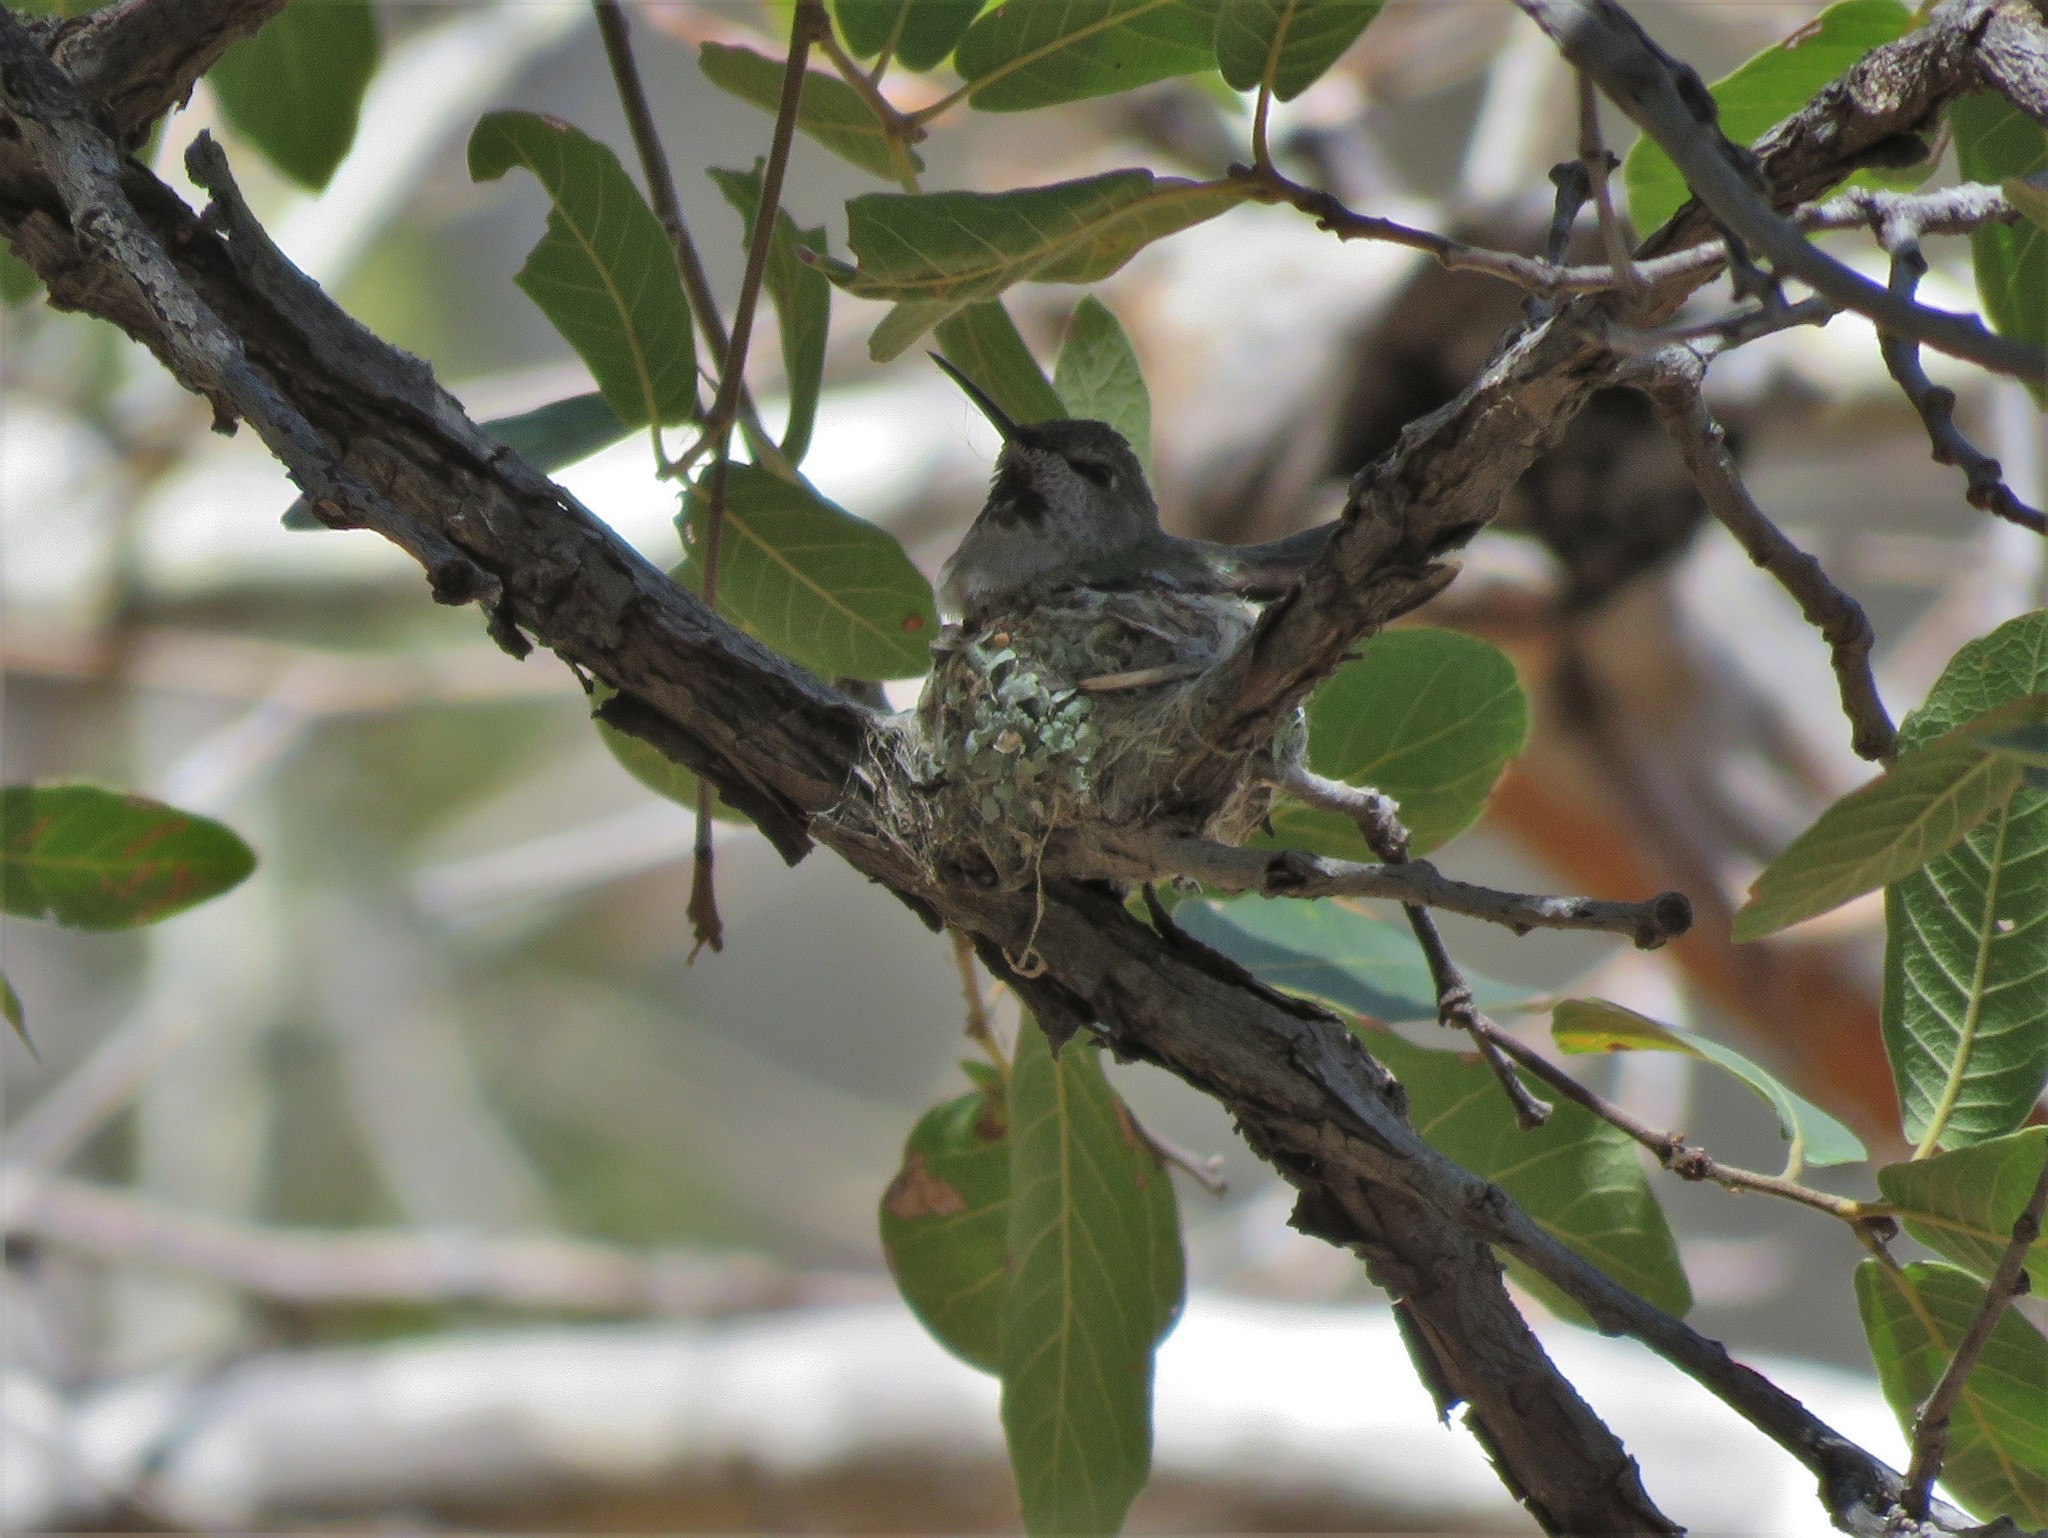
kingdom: Animalia
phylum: Chordata
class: Aves
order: Apodiformes
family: Trochilidae
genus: Calypte
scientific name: Calypte anna
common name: Anna's hummingbird
